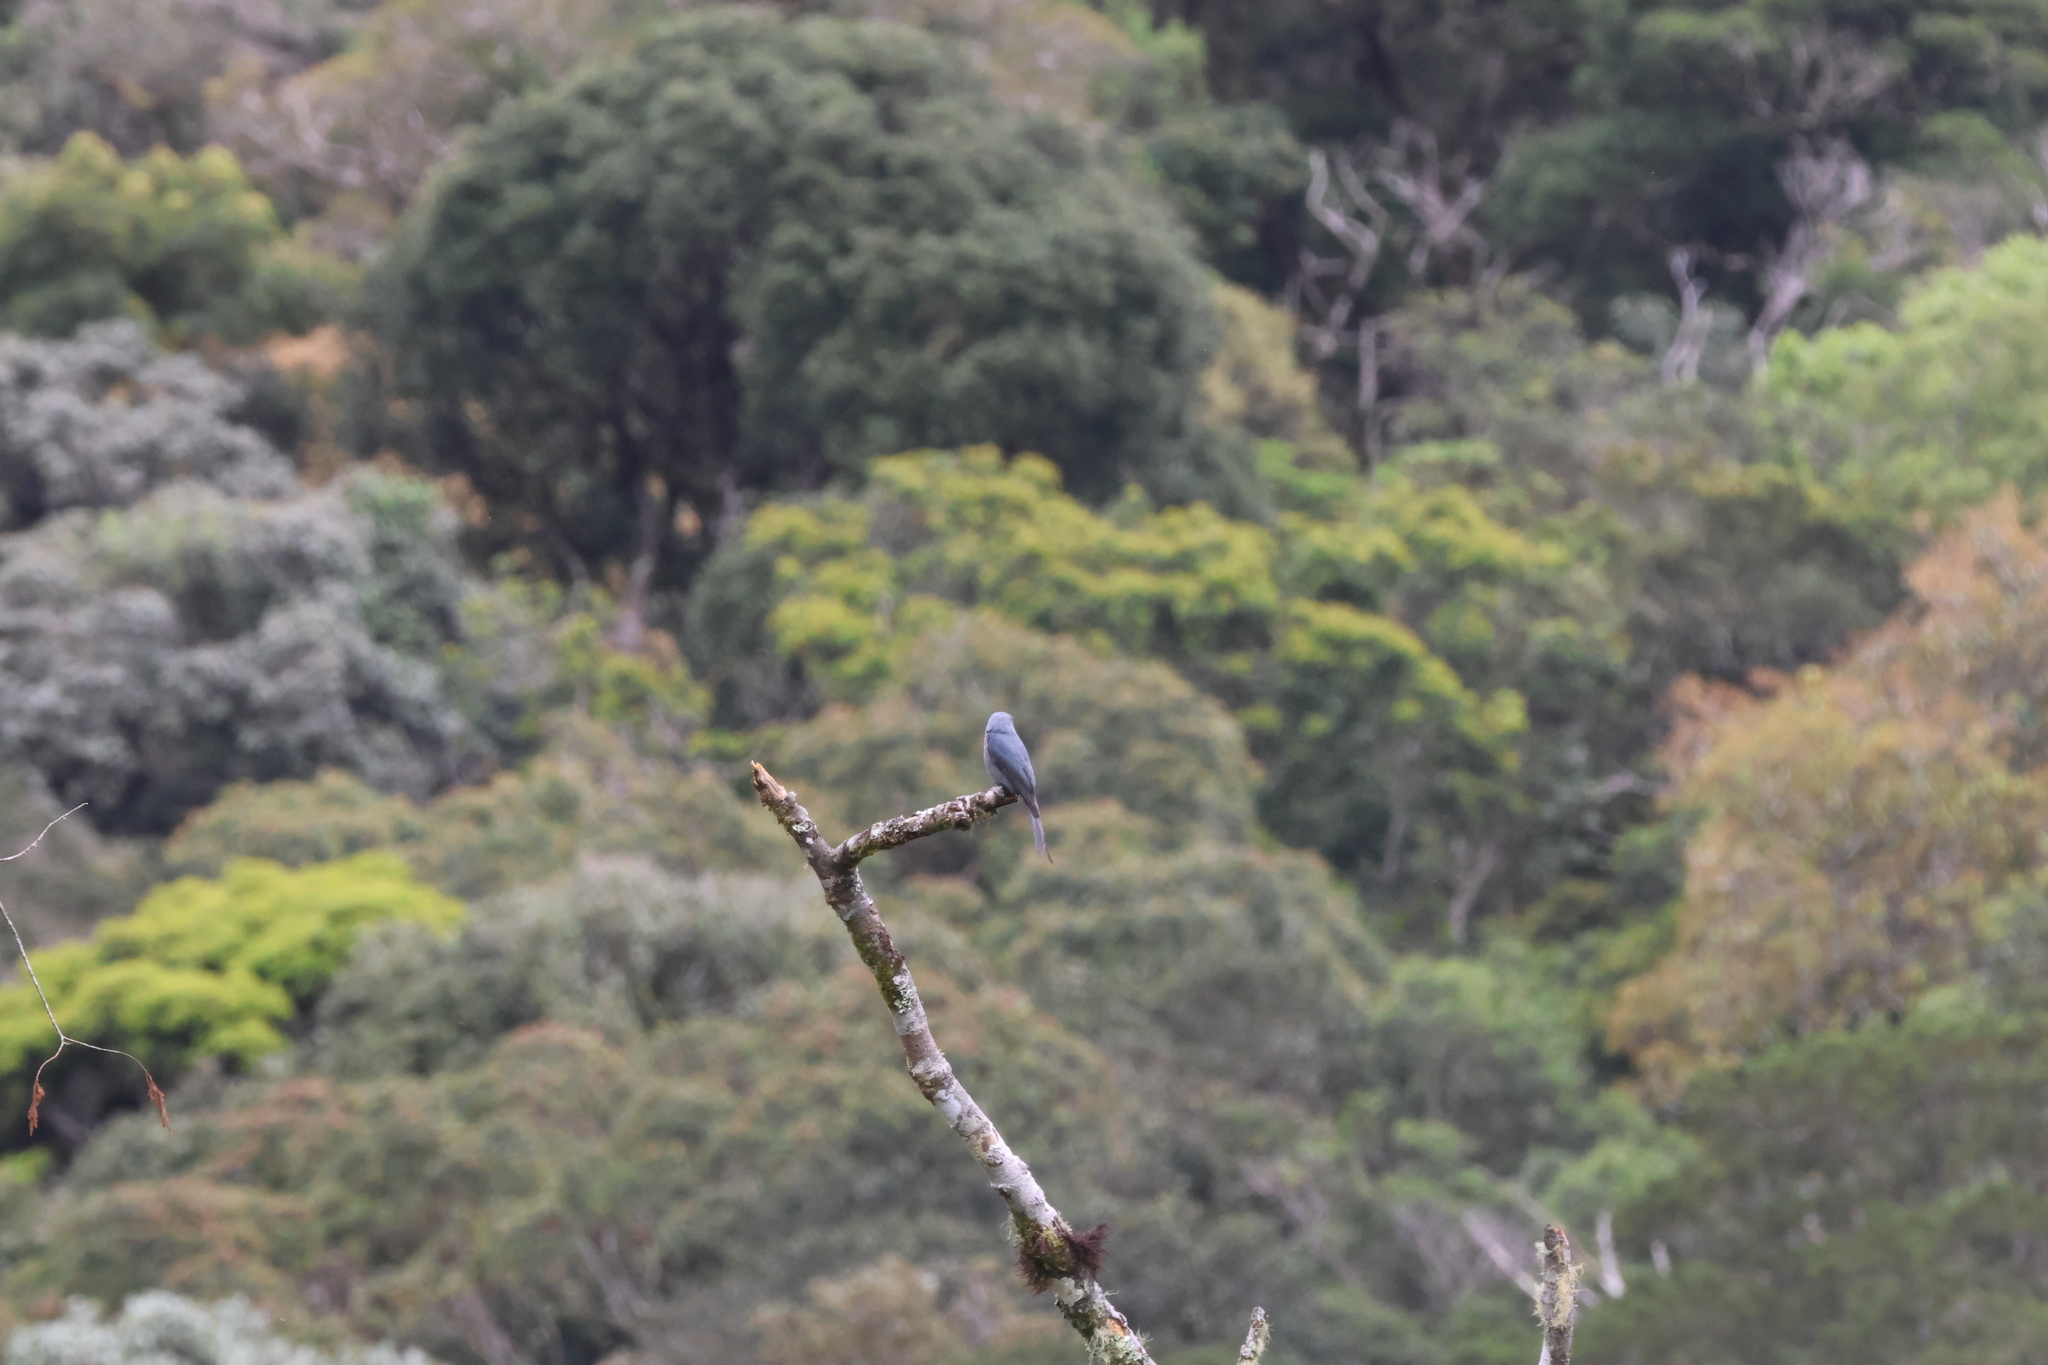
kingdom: Animalia
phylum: Chordata
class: Aves
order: Passeriformes
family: Dicruridae
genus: Dicrurus
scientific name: Dicrurus leucophaeus
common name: Ashy drongo
